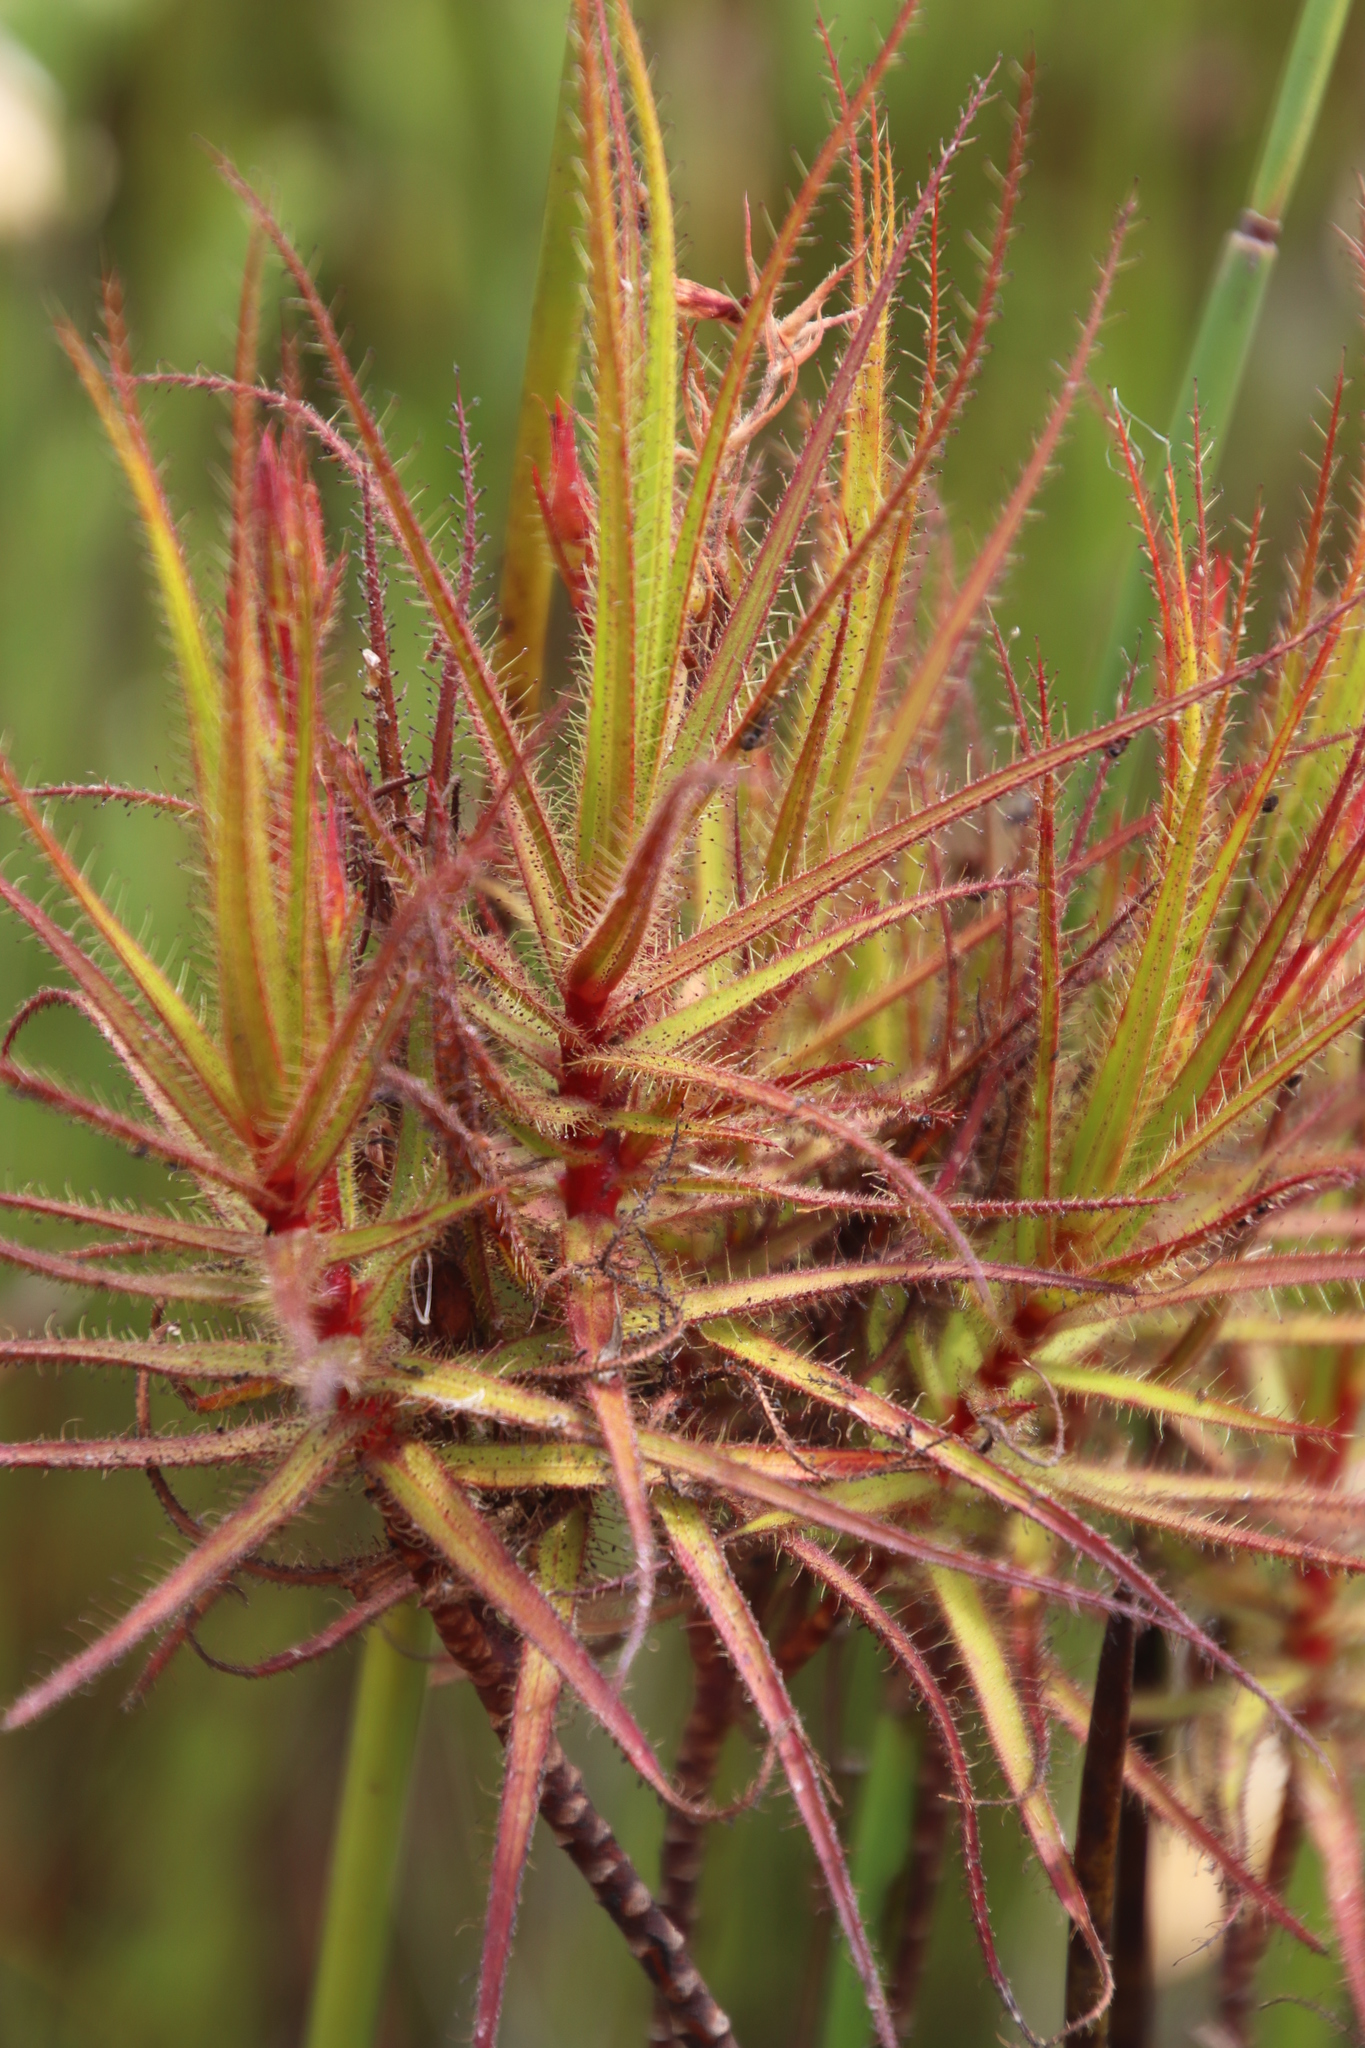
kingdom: Plantae
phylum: Tracheophyta
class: Magnoliopsida
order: Ericales
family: Roridulaceae
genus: Roridula
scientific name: Roridula gorgonias
